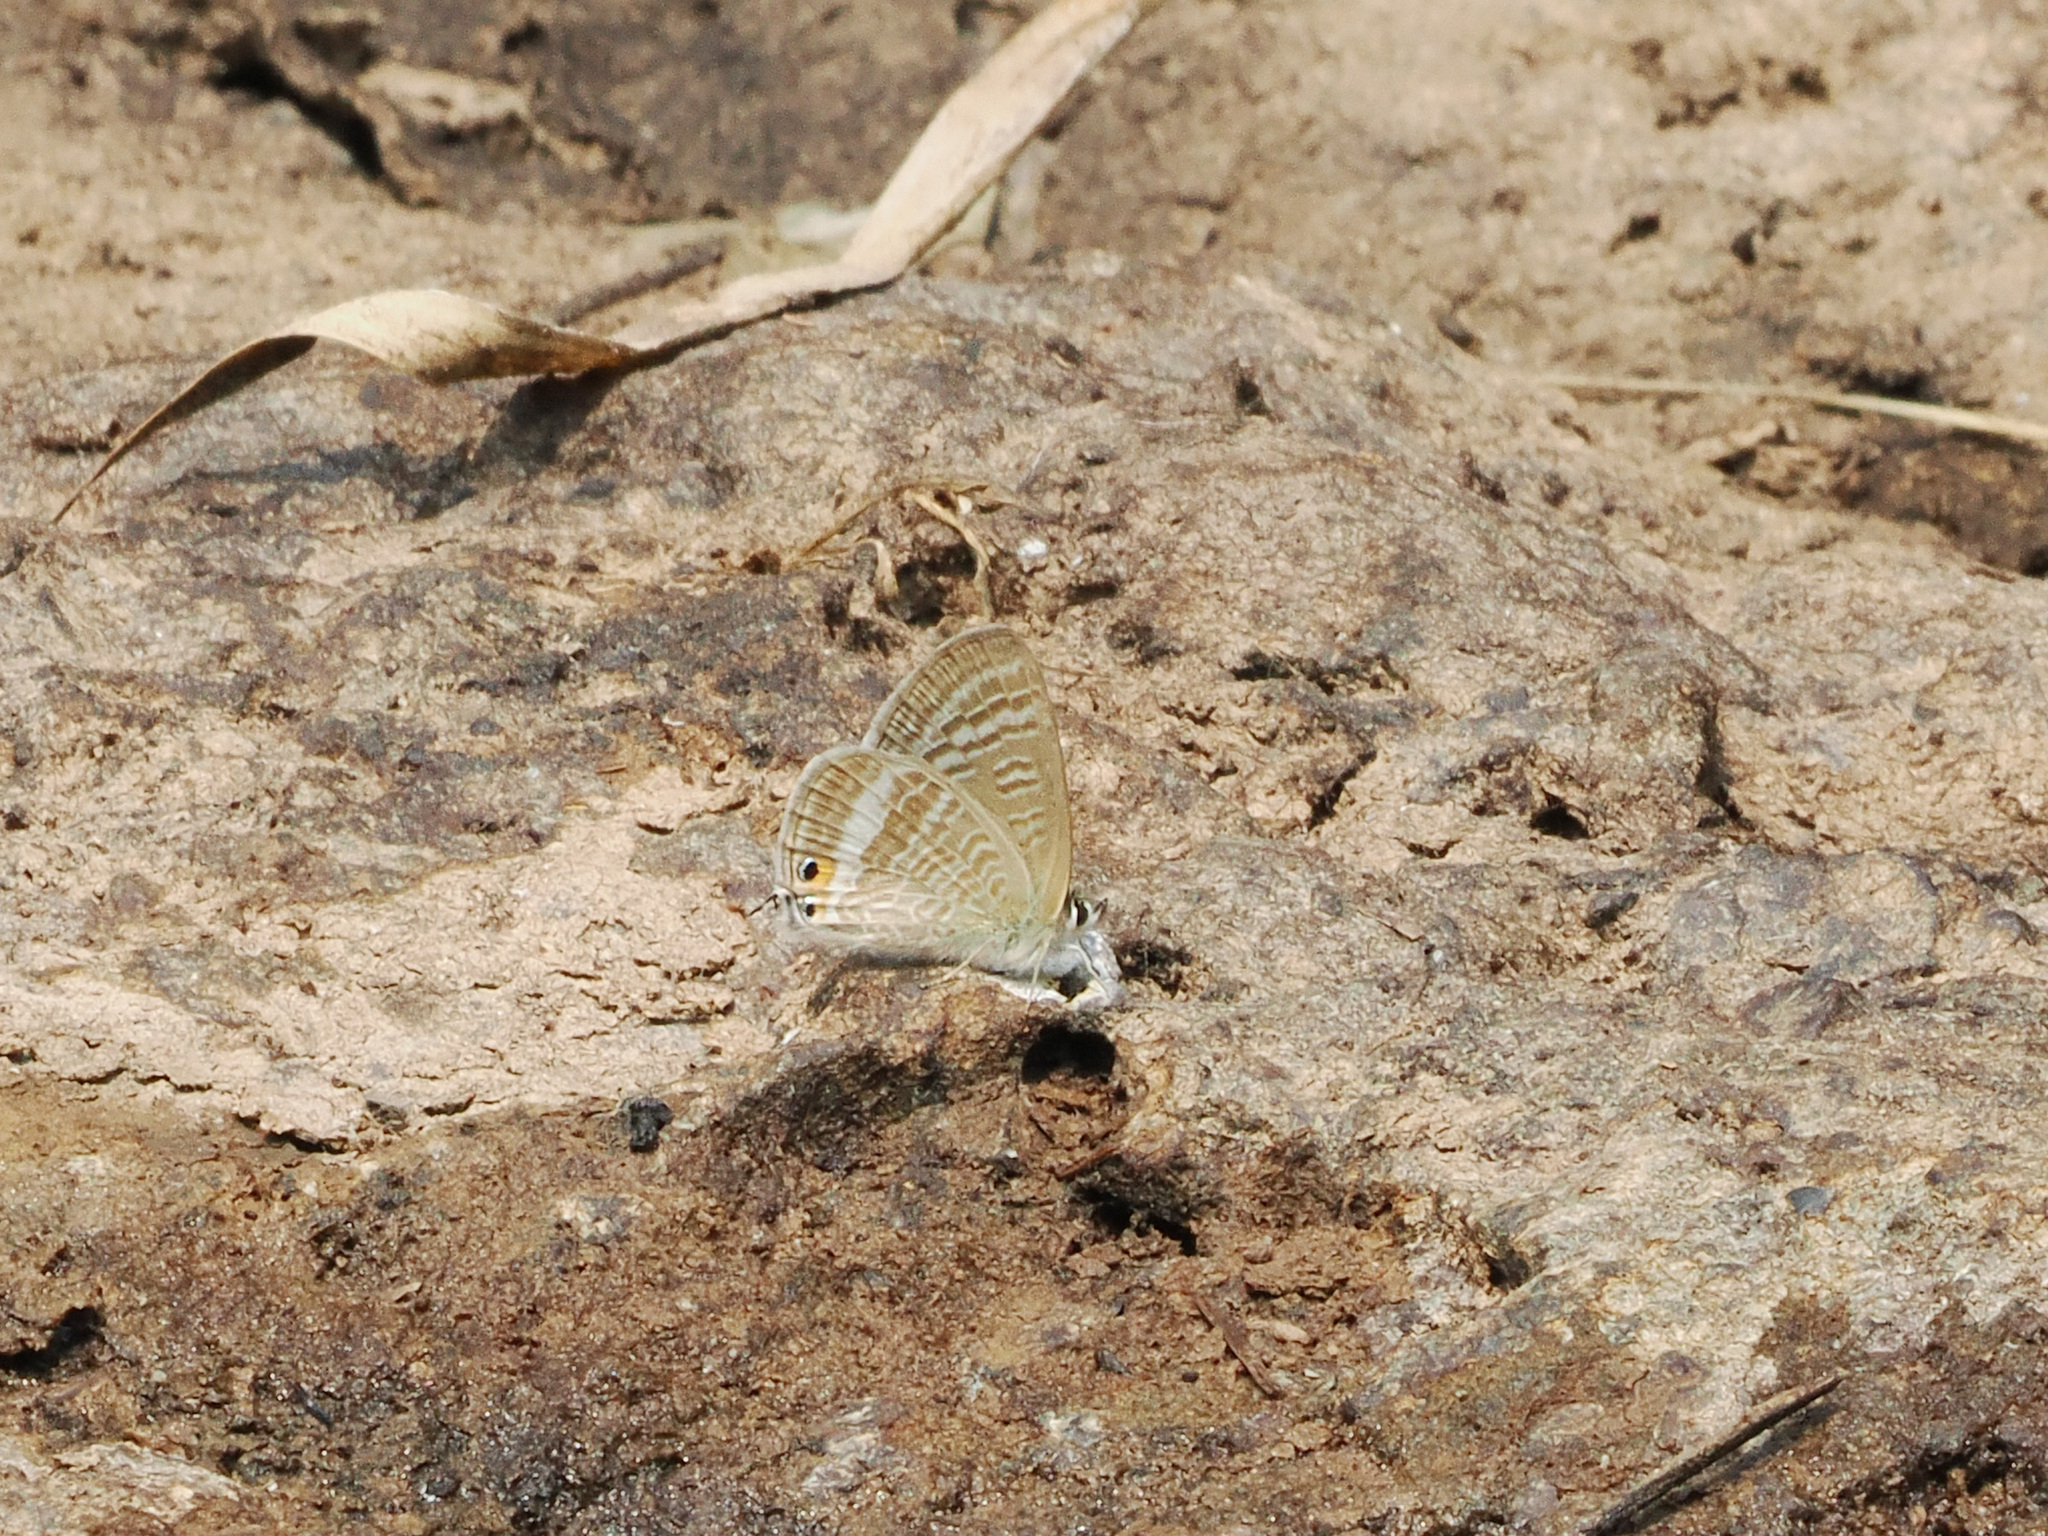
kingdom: Animalia
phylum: Arthropoda
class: Insecta
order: Lepidoptera
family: Lycaenidae
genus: Lampides
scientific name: Lampides boeticus
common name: Long-tailed blue
